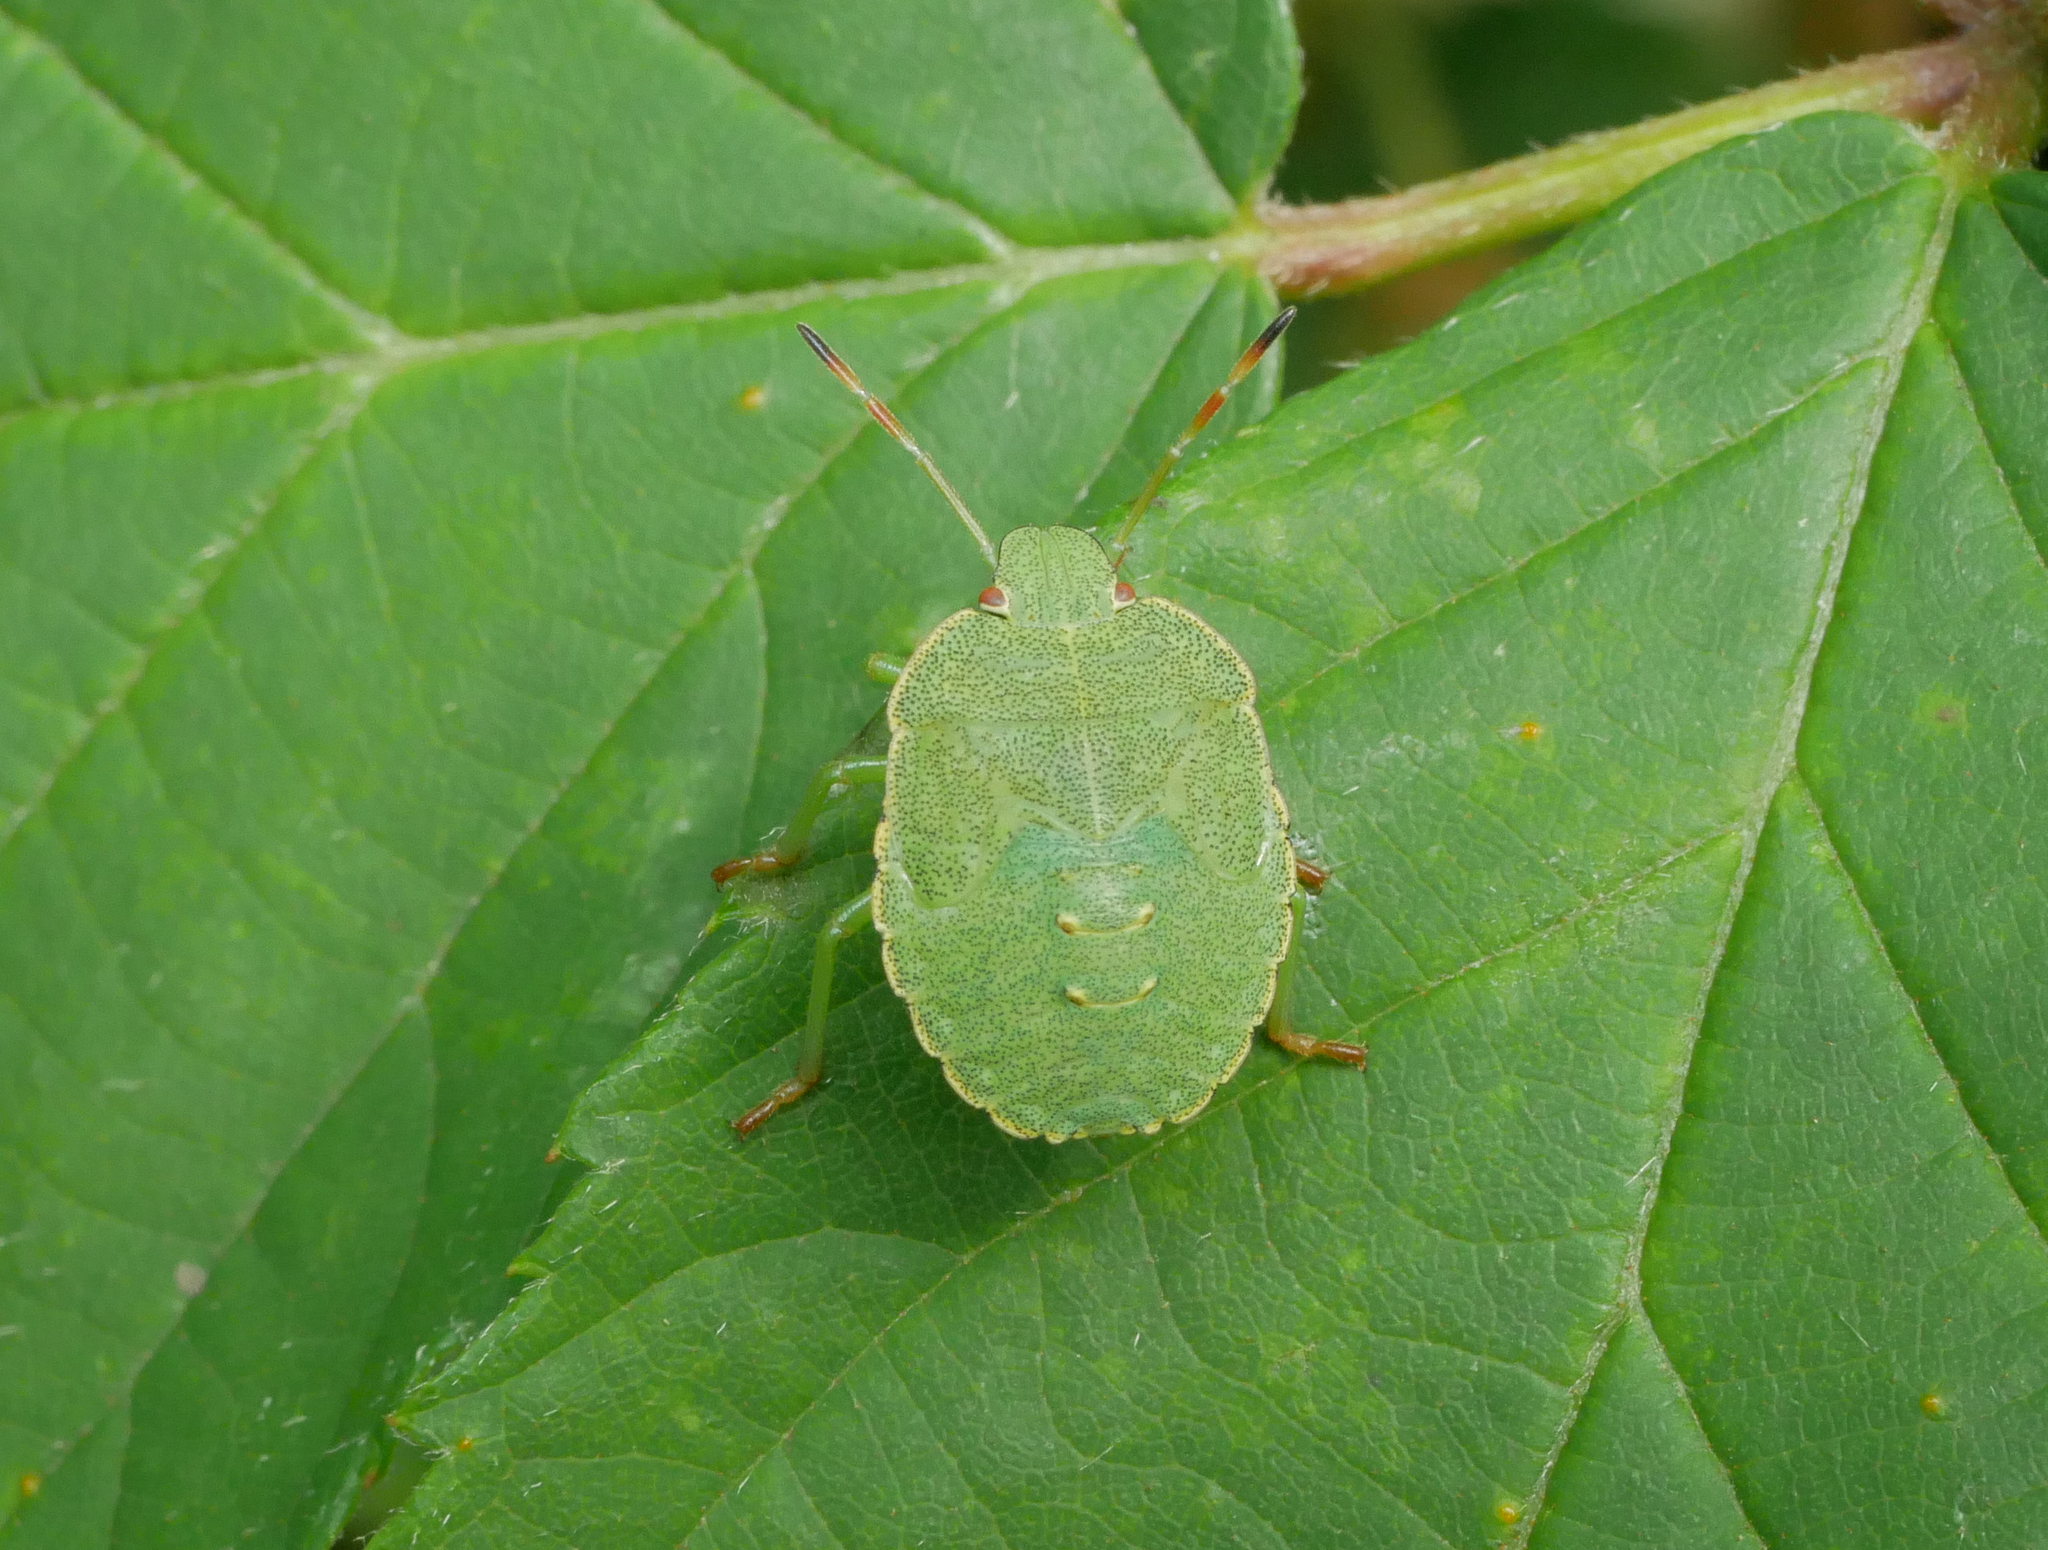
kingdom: Animalia
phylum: Arthropoda
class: Insecta
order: Hemiptera
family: Pentatomidae
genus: Palomena
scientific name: Palomena prasina
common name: Green shieldbug
